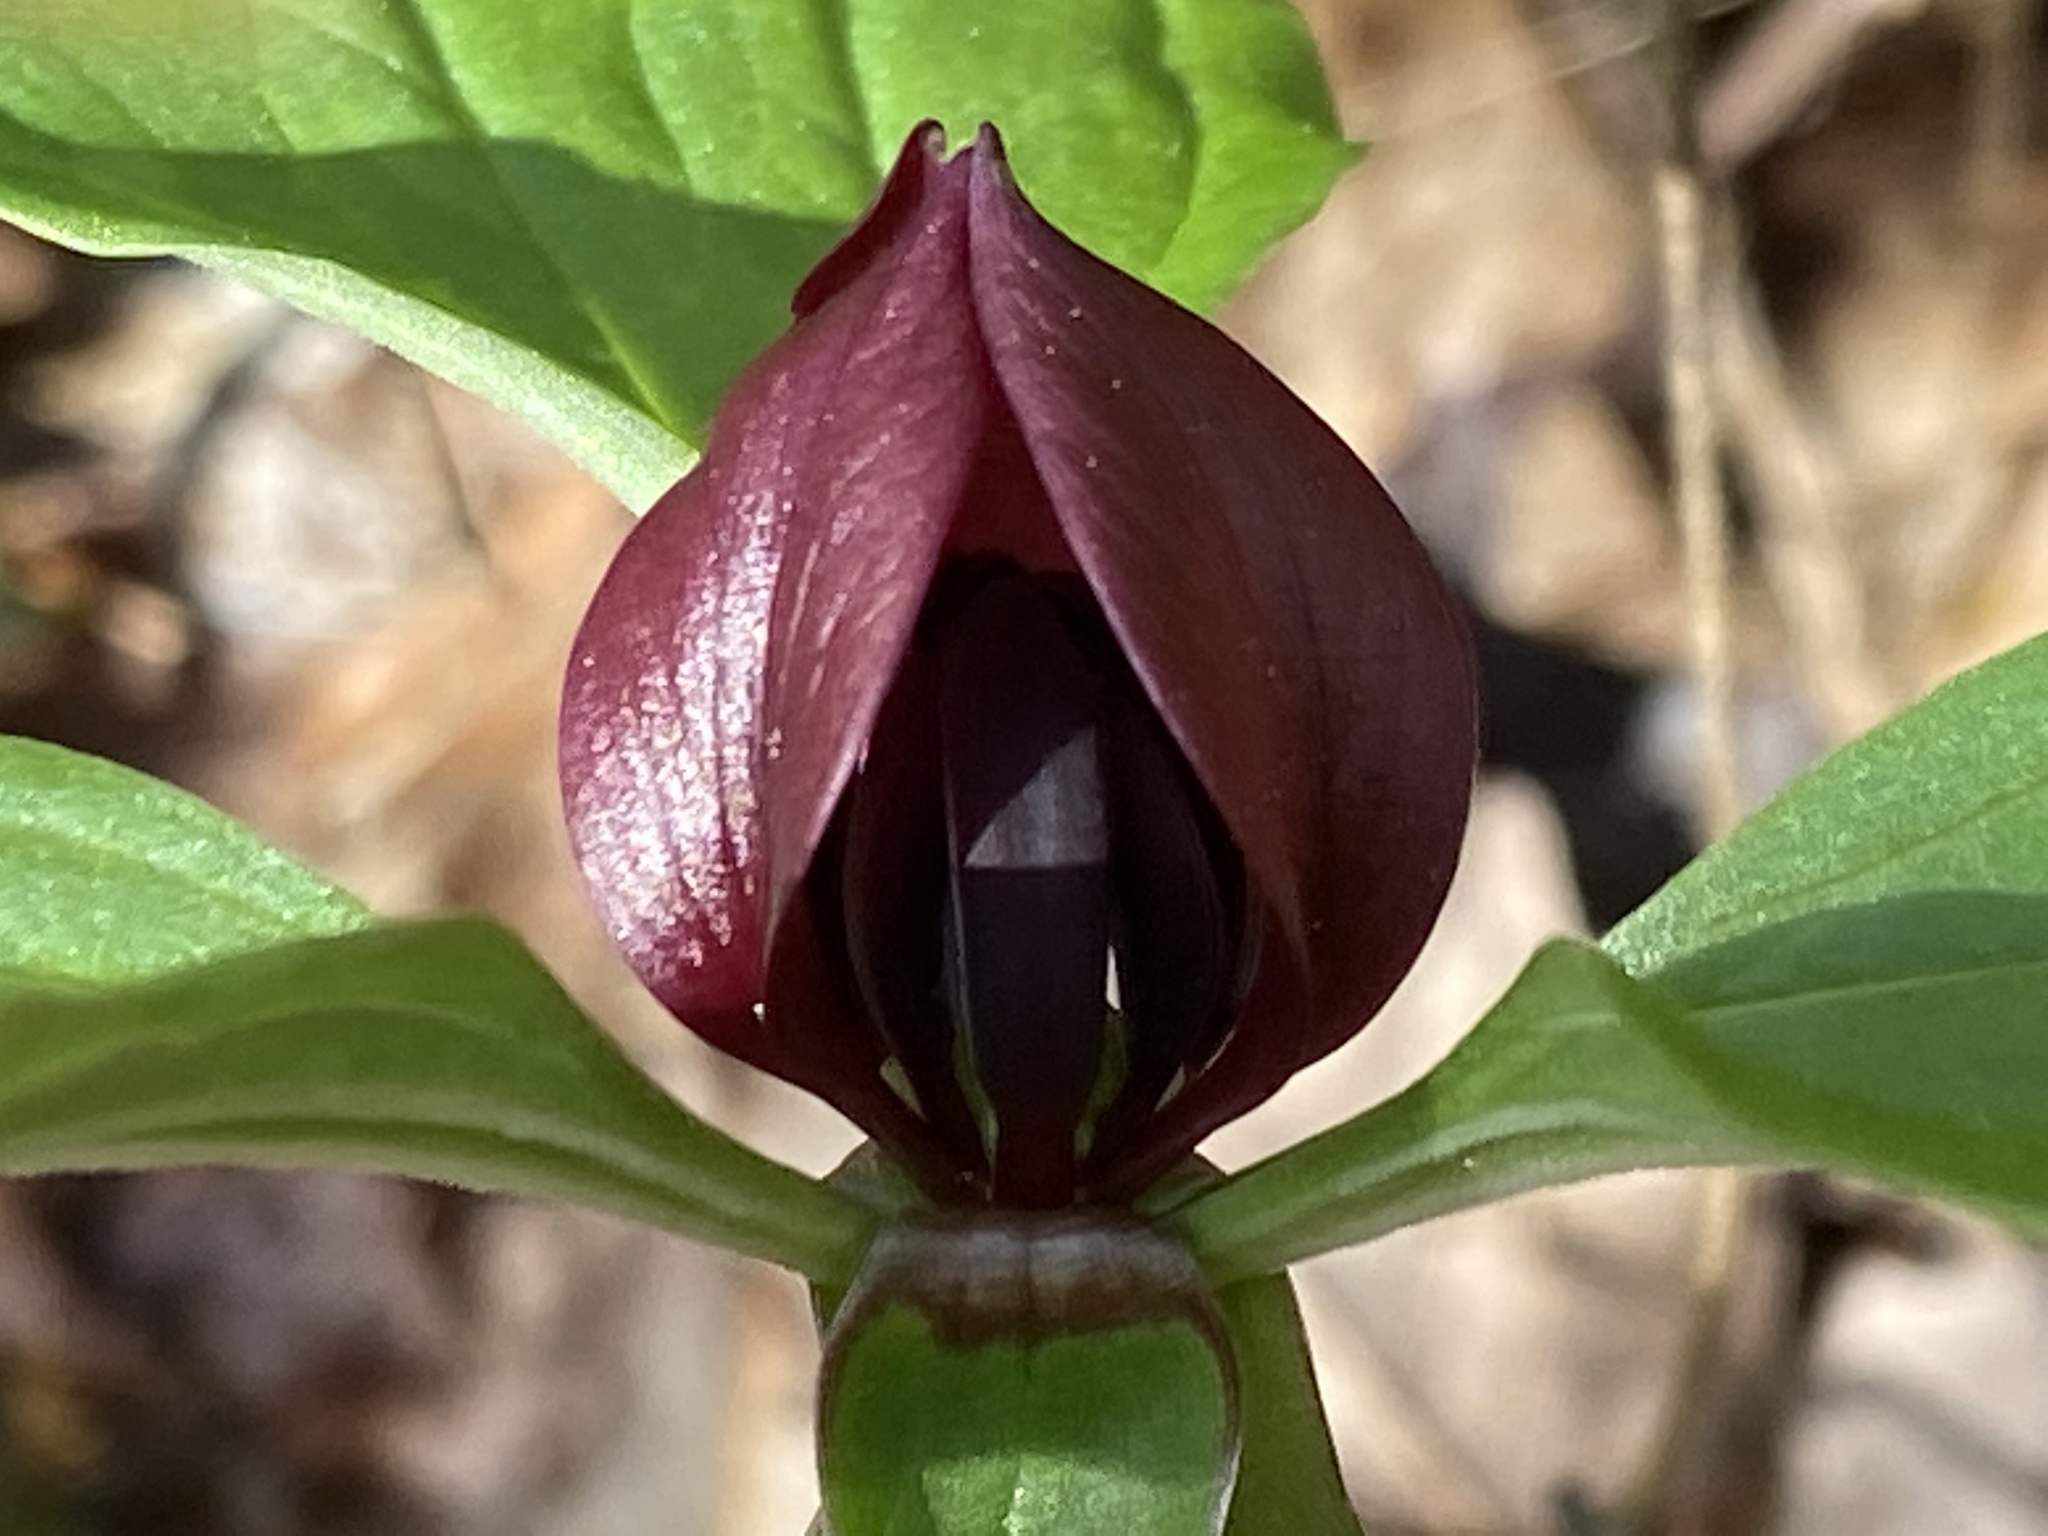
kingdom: Plantae
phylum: Tracheophyta
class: Liliopsida
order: Liliales
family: Melanthiaceae
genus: Trillium
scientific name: Trillium recurvatum
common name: Bloody butcher
